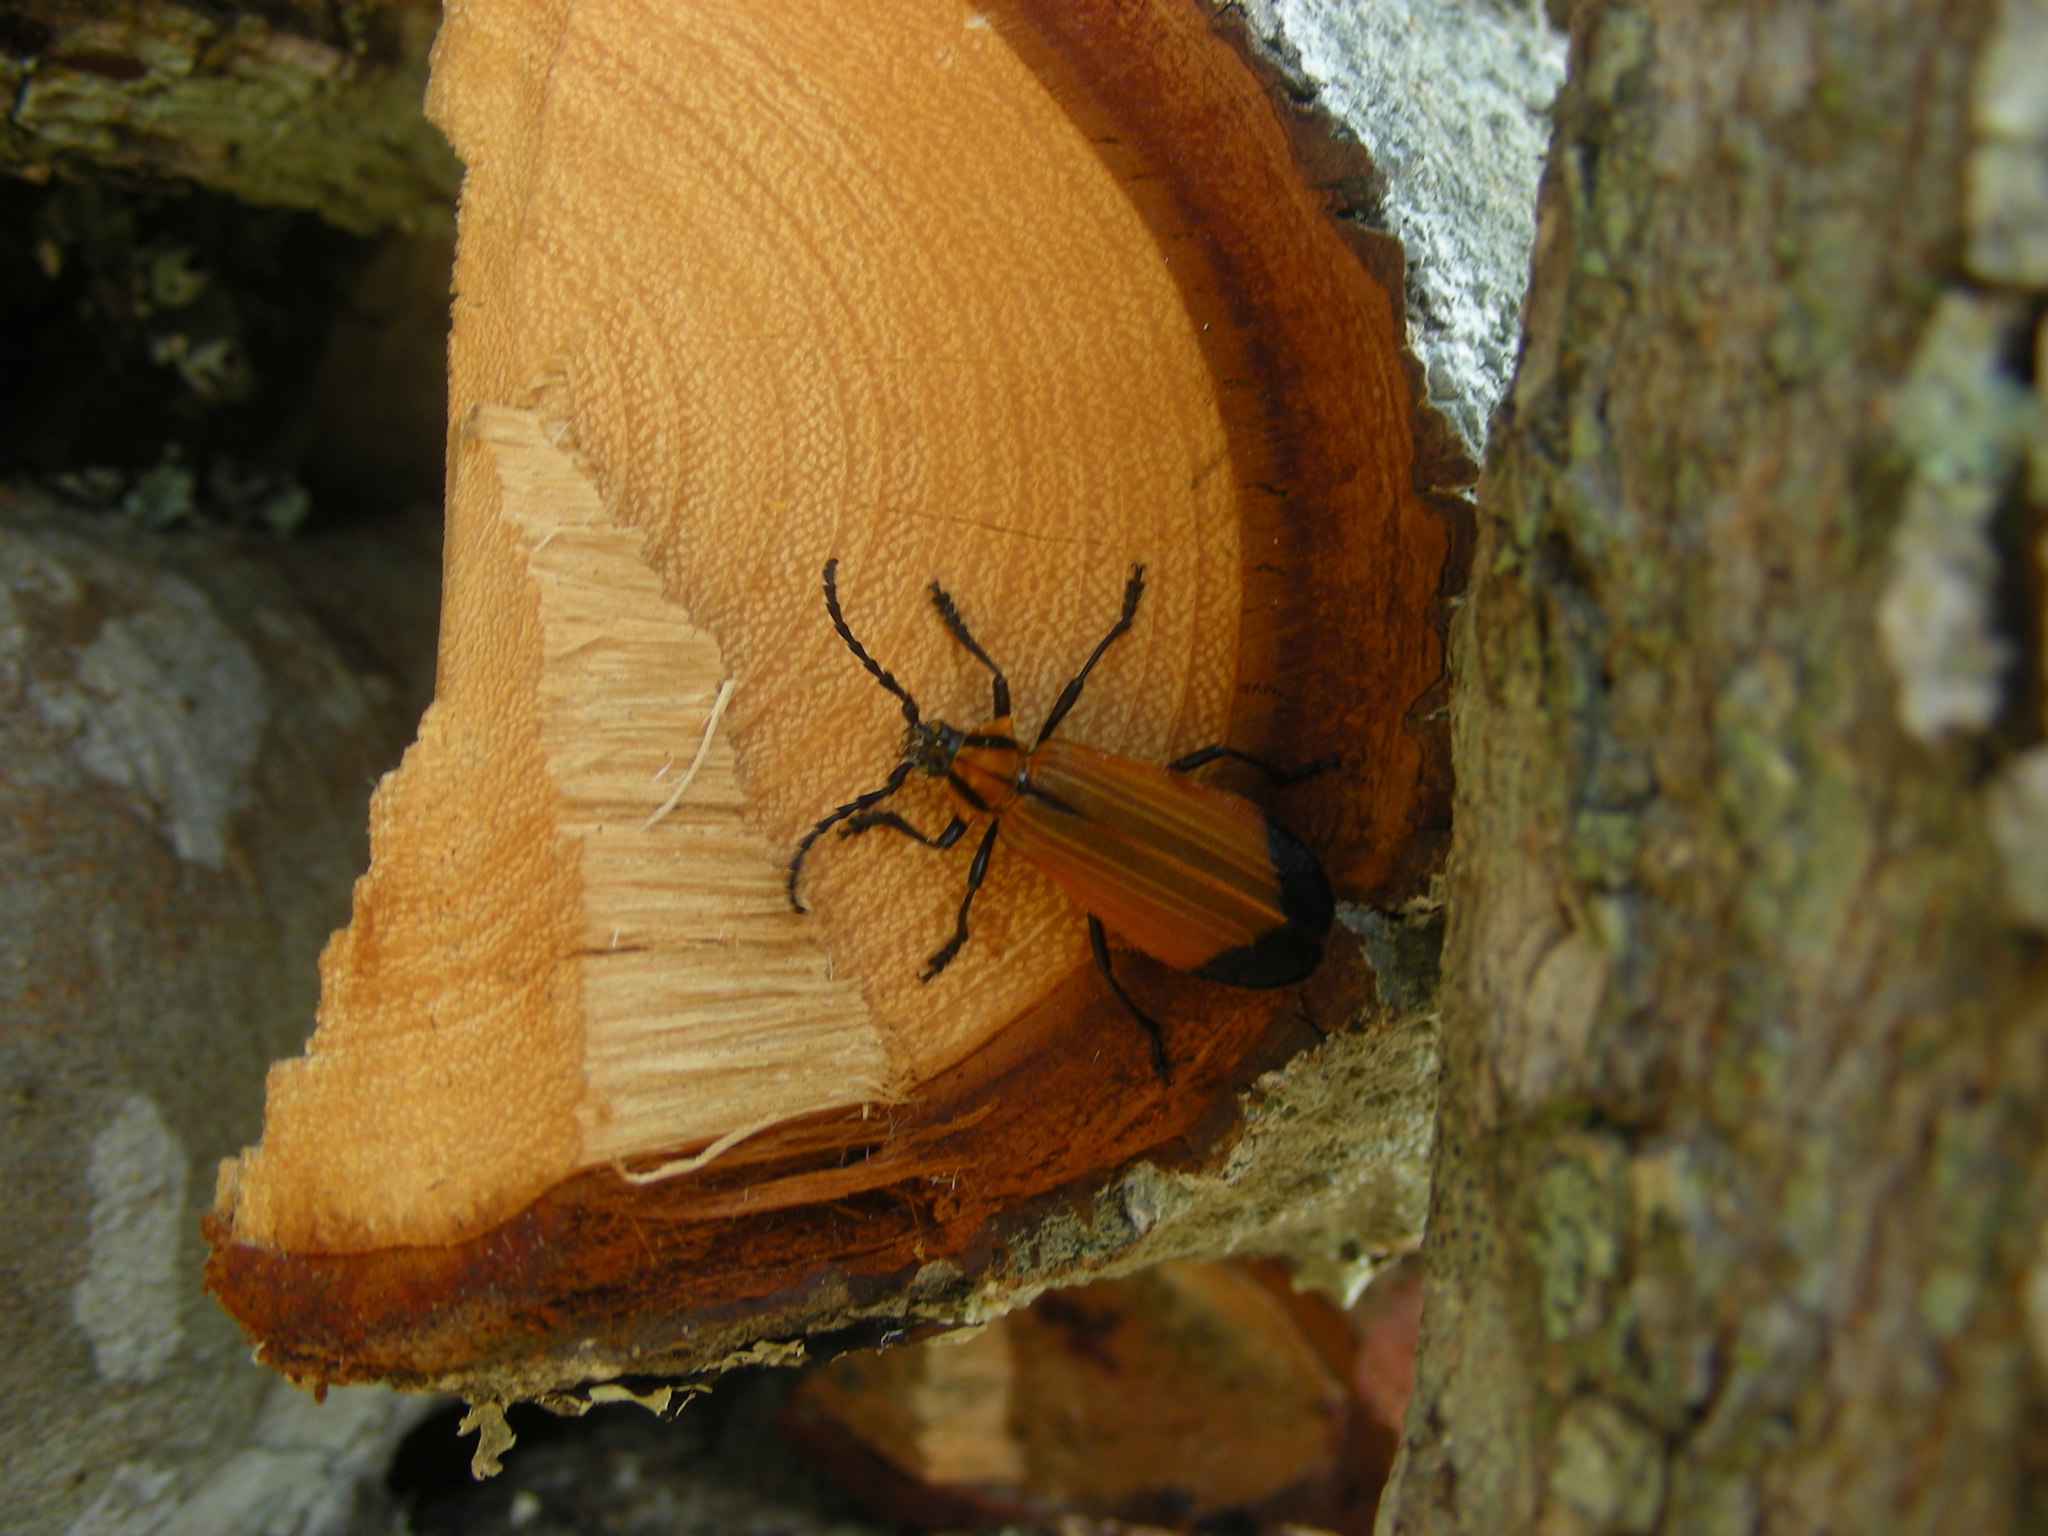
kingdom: Animalia
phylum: Arthropoda
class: Insecta
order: Coleoptera
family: Cerambycidae
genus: Amphidesmus
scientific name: Amphidesmus theorini
